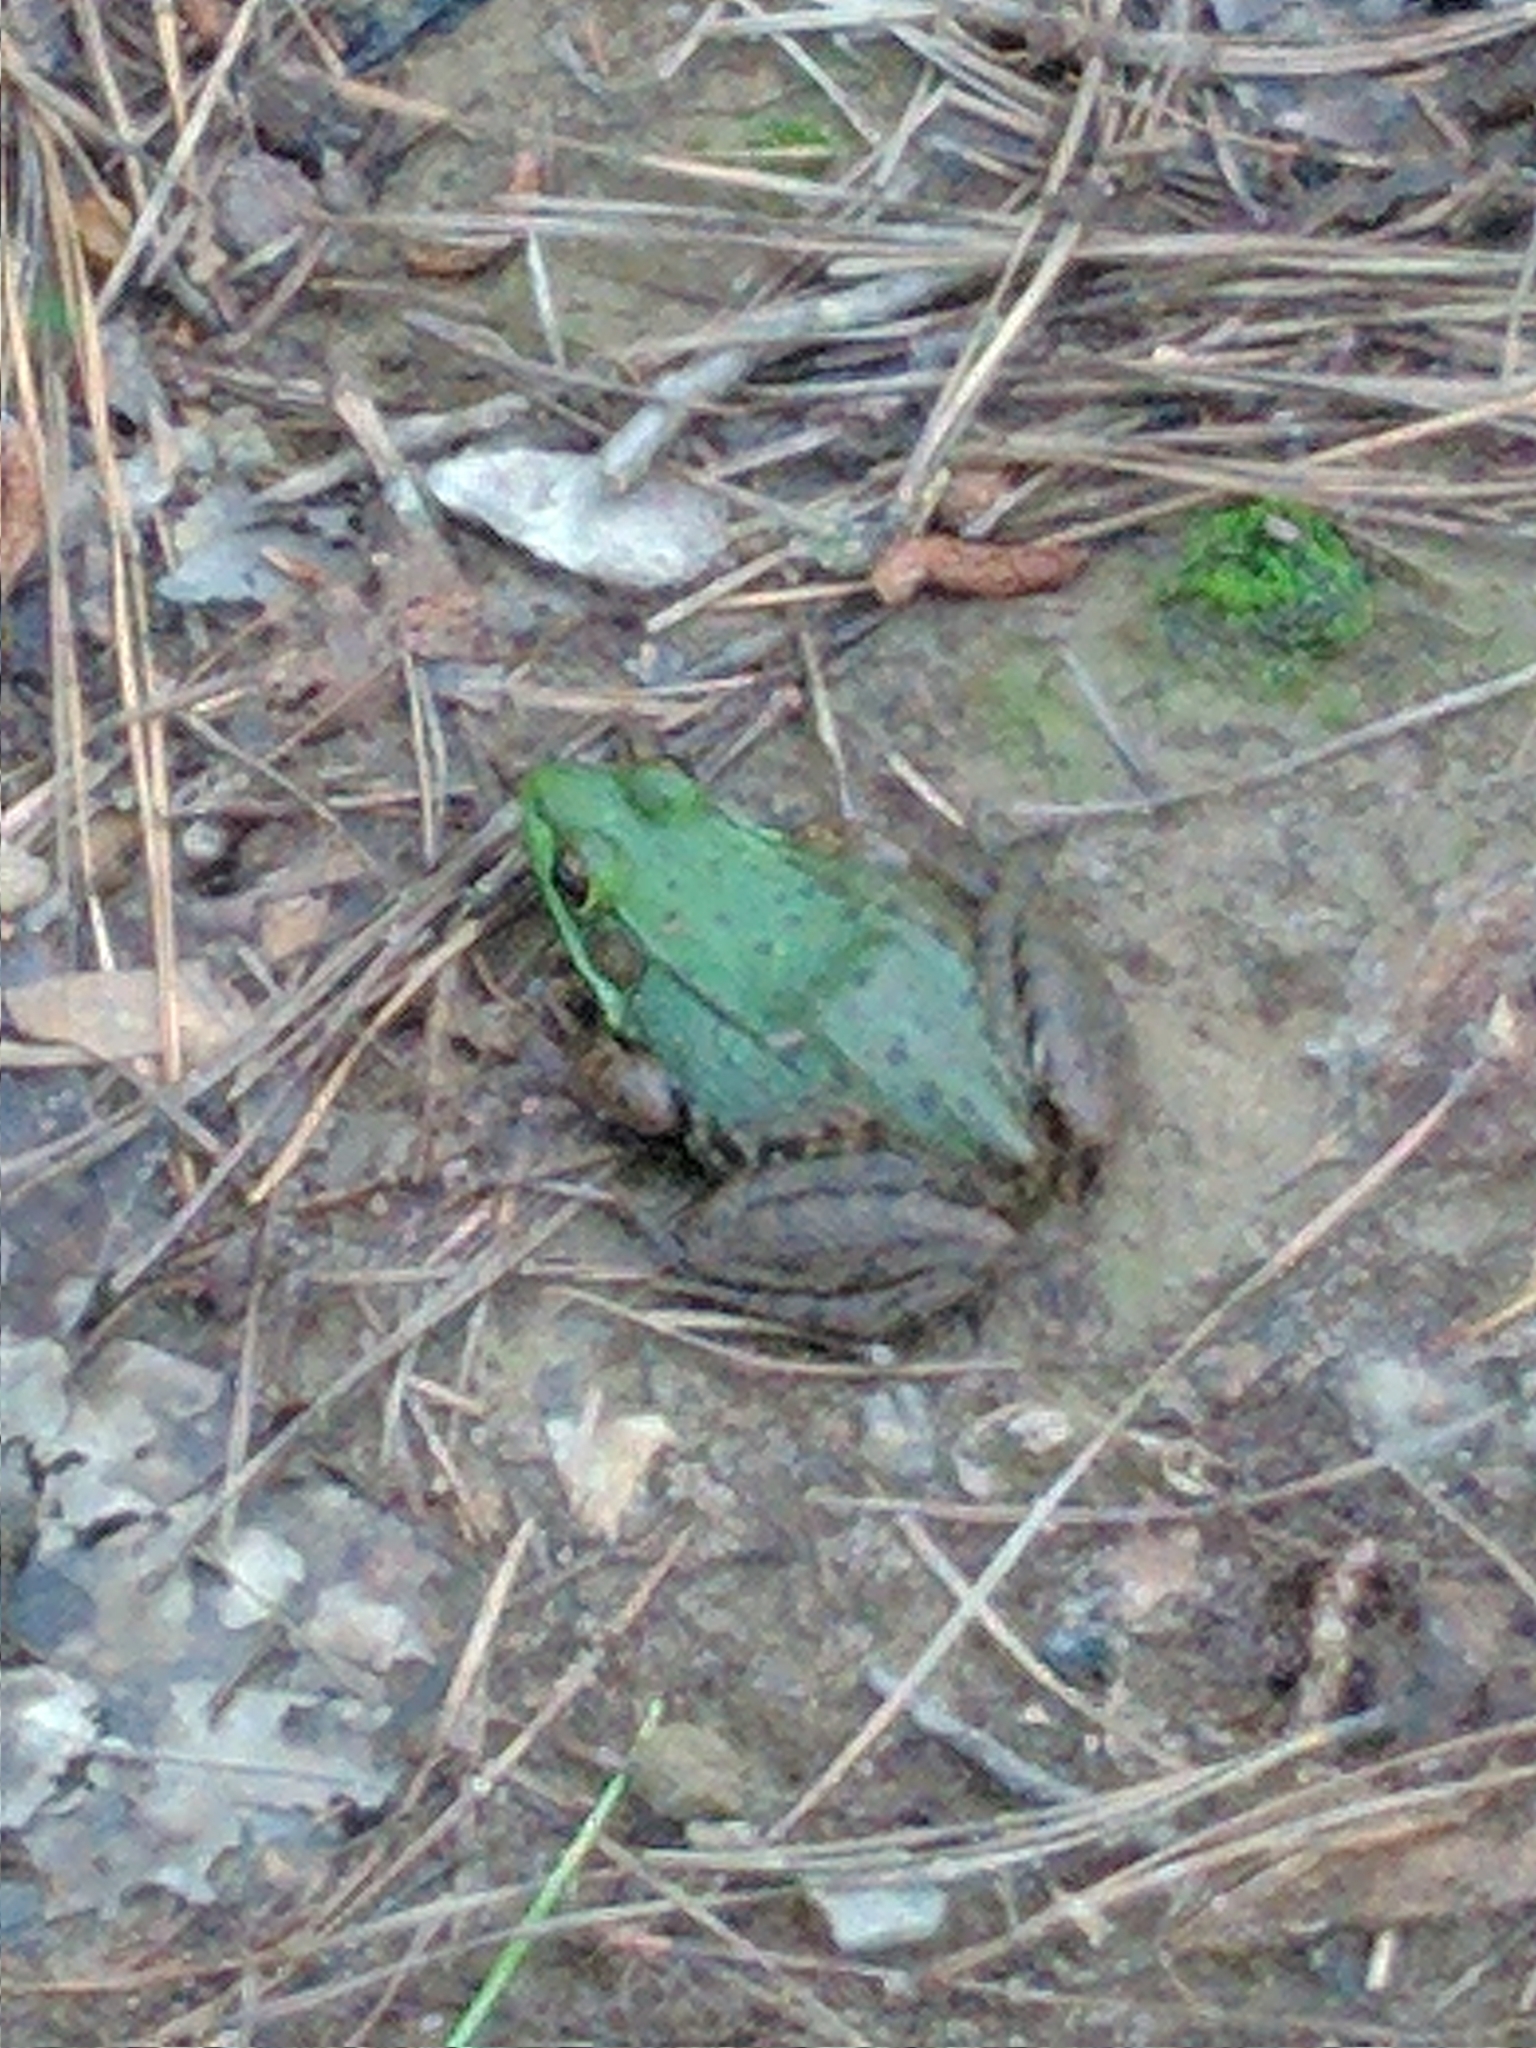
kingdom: Animalia
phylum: Chordata
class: Amphibia
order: Anura
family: Ranidae
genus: Lithobates
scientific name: Lithobates clamitans
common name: Green frog
